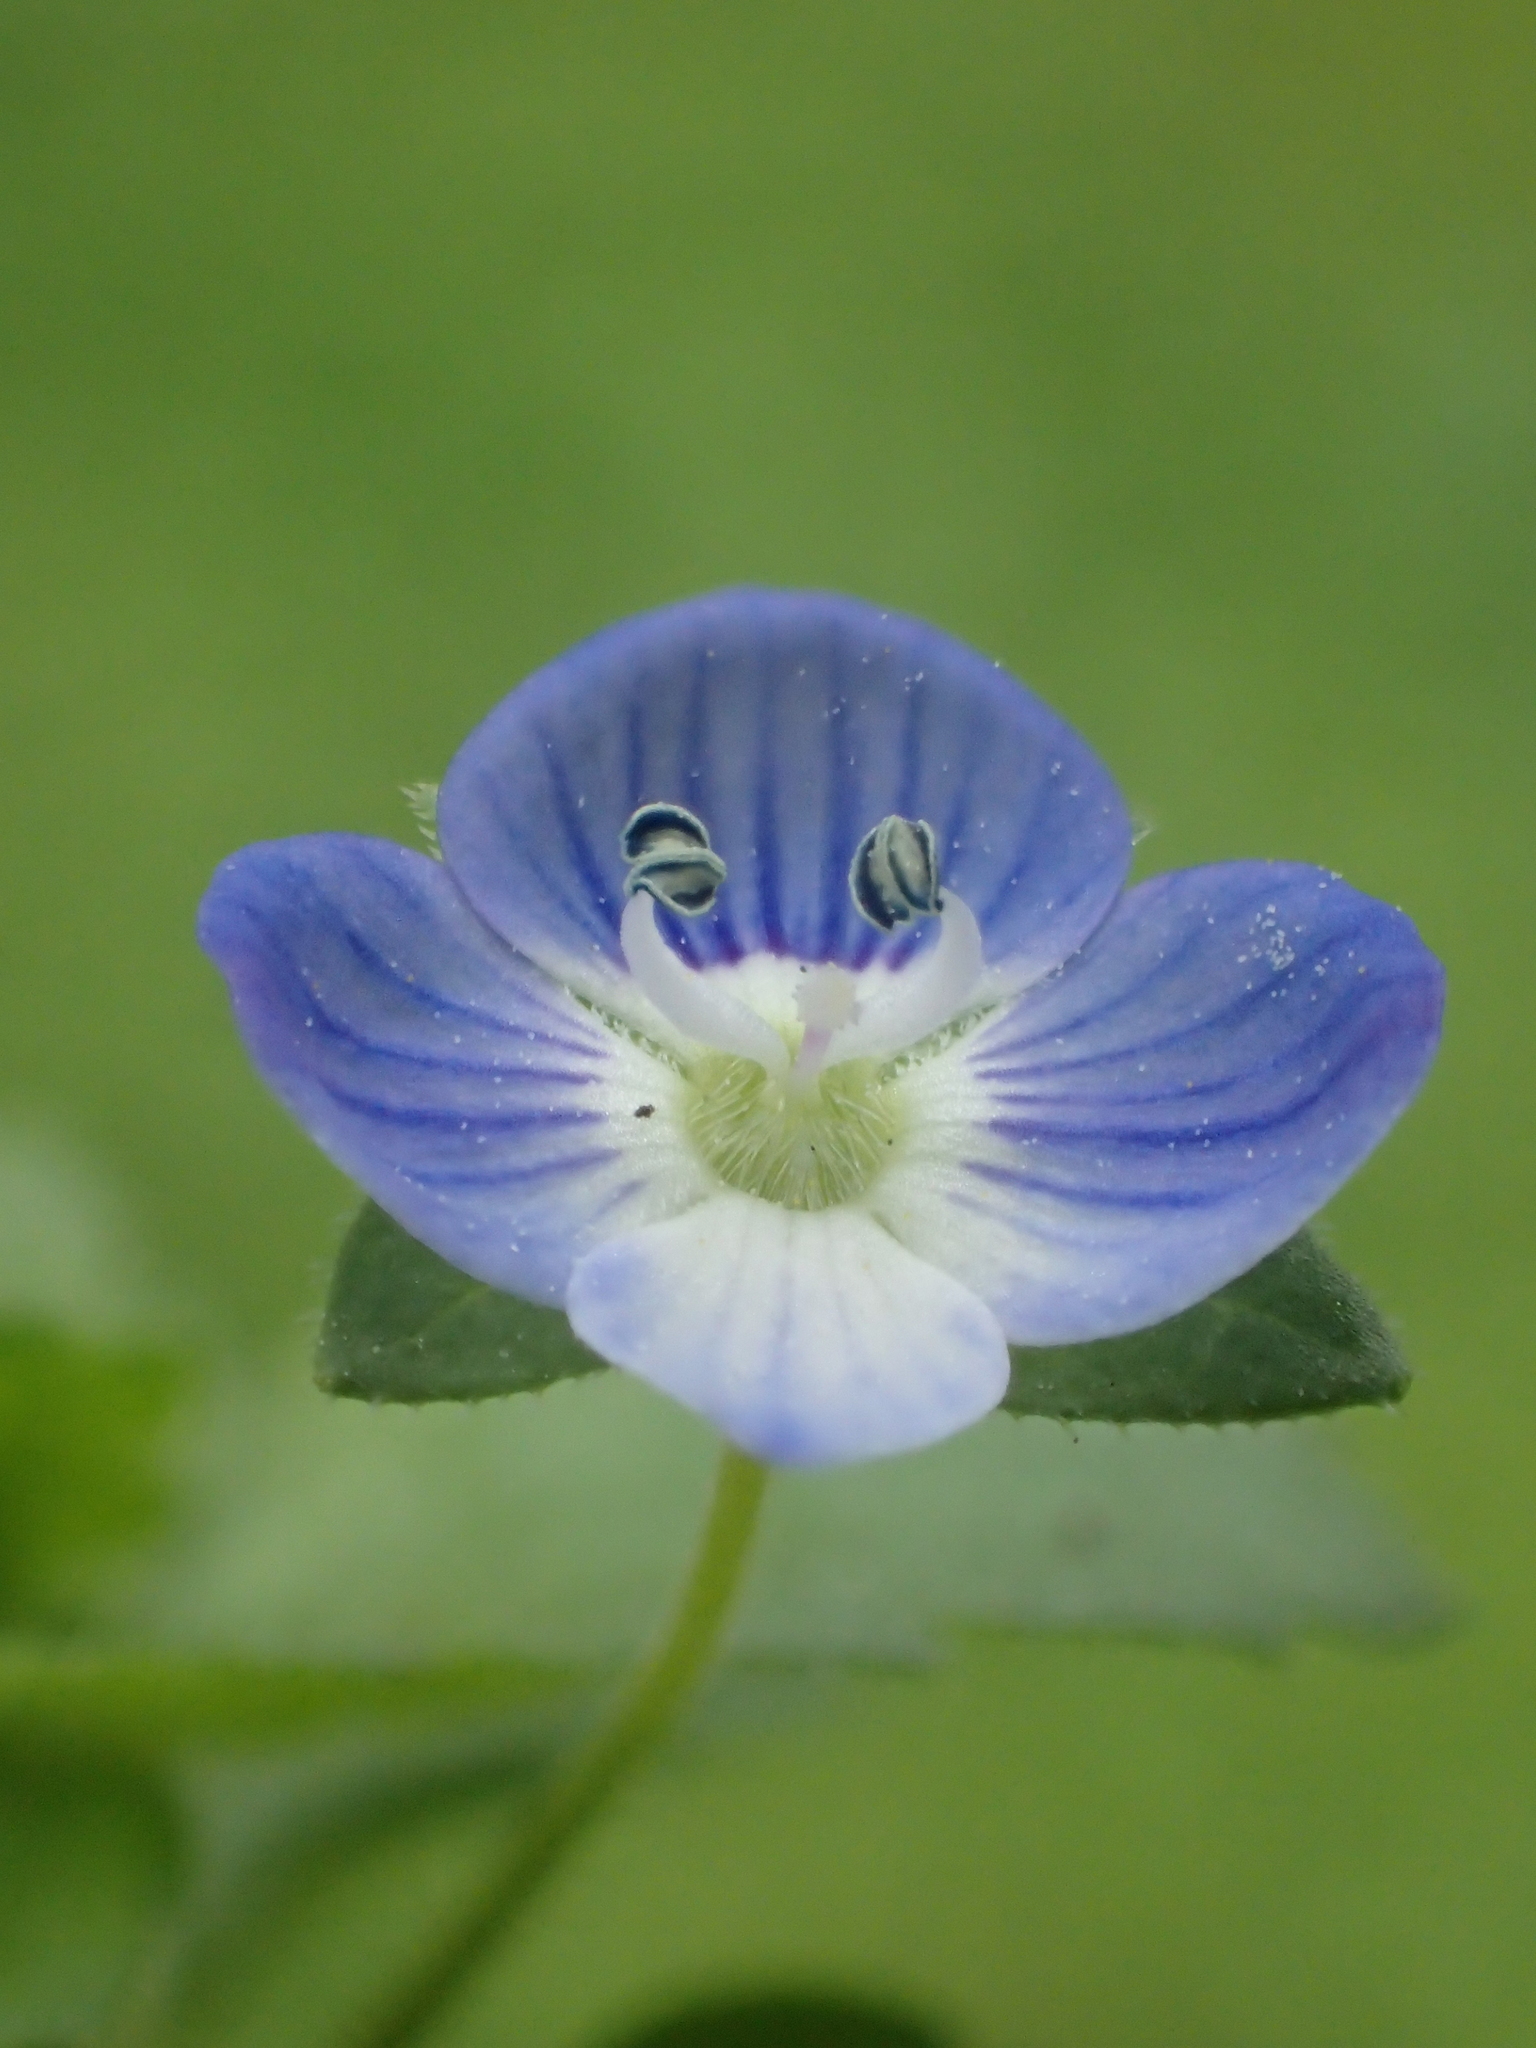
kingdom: Plantae
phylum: Tracheophyta
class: Magnoliopsida
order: Lamiales
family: Plantaginaceae
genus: Veronica
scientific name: Veronica persica
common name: Common field-speedwell
